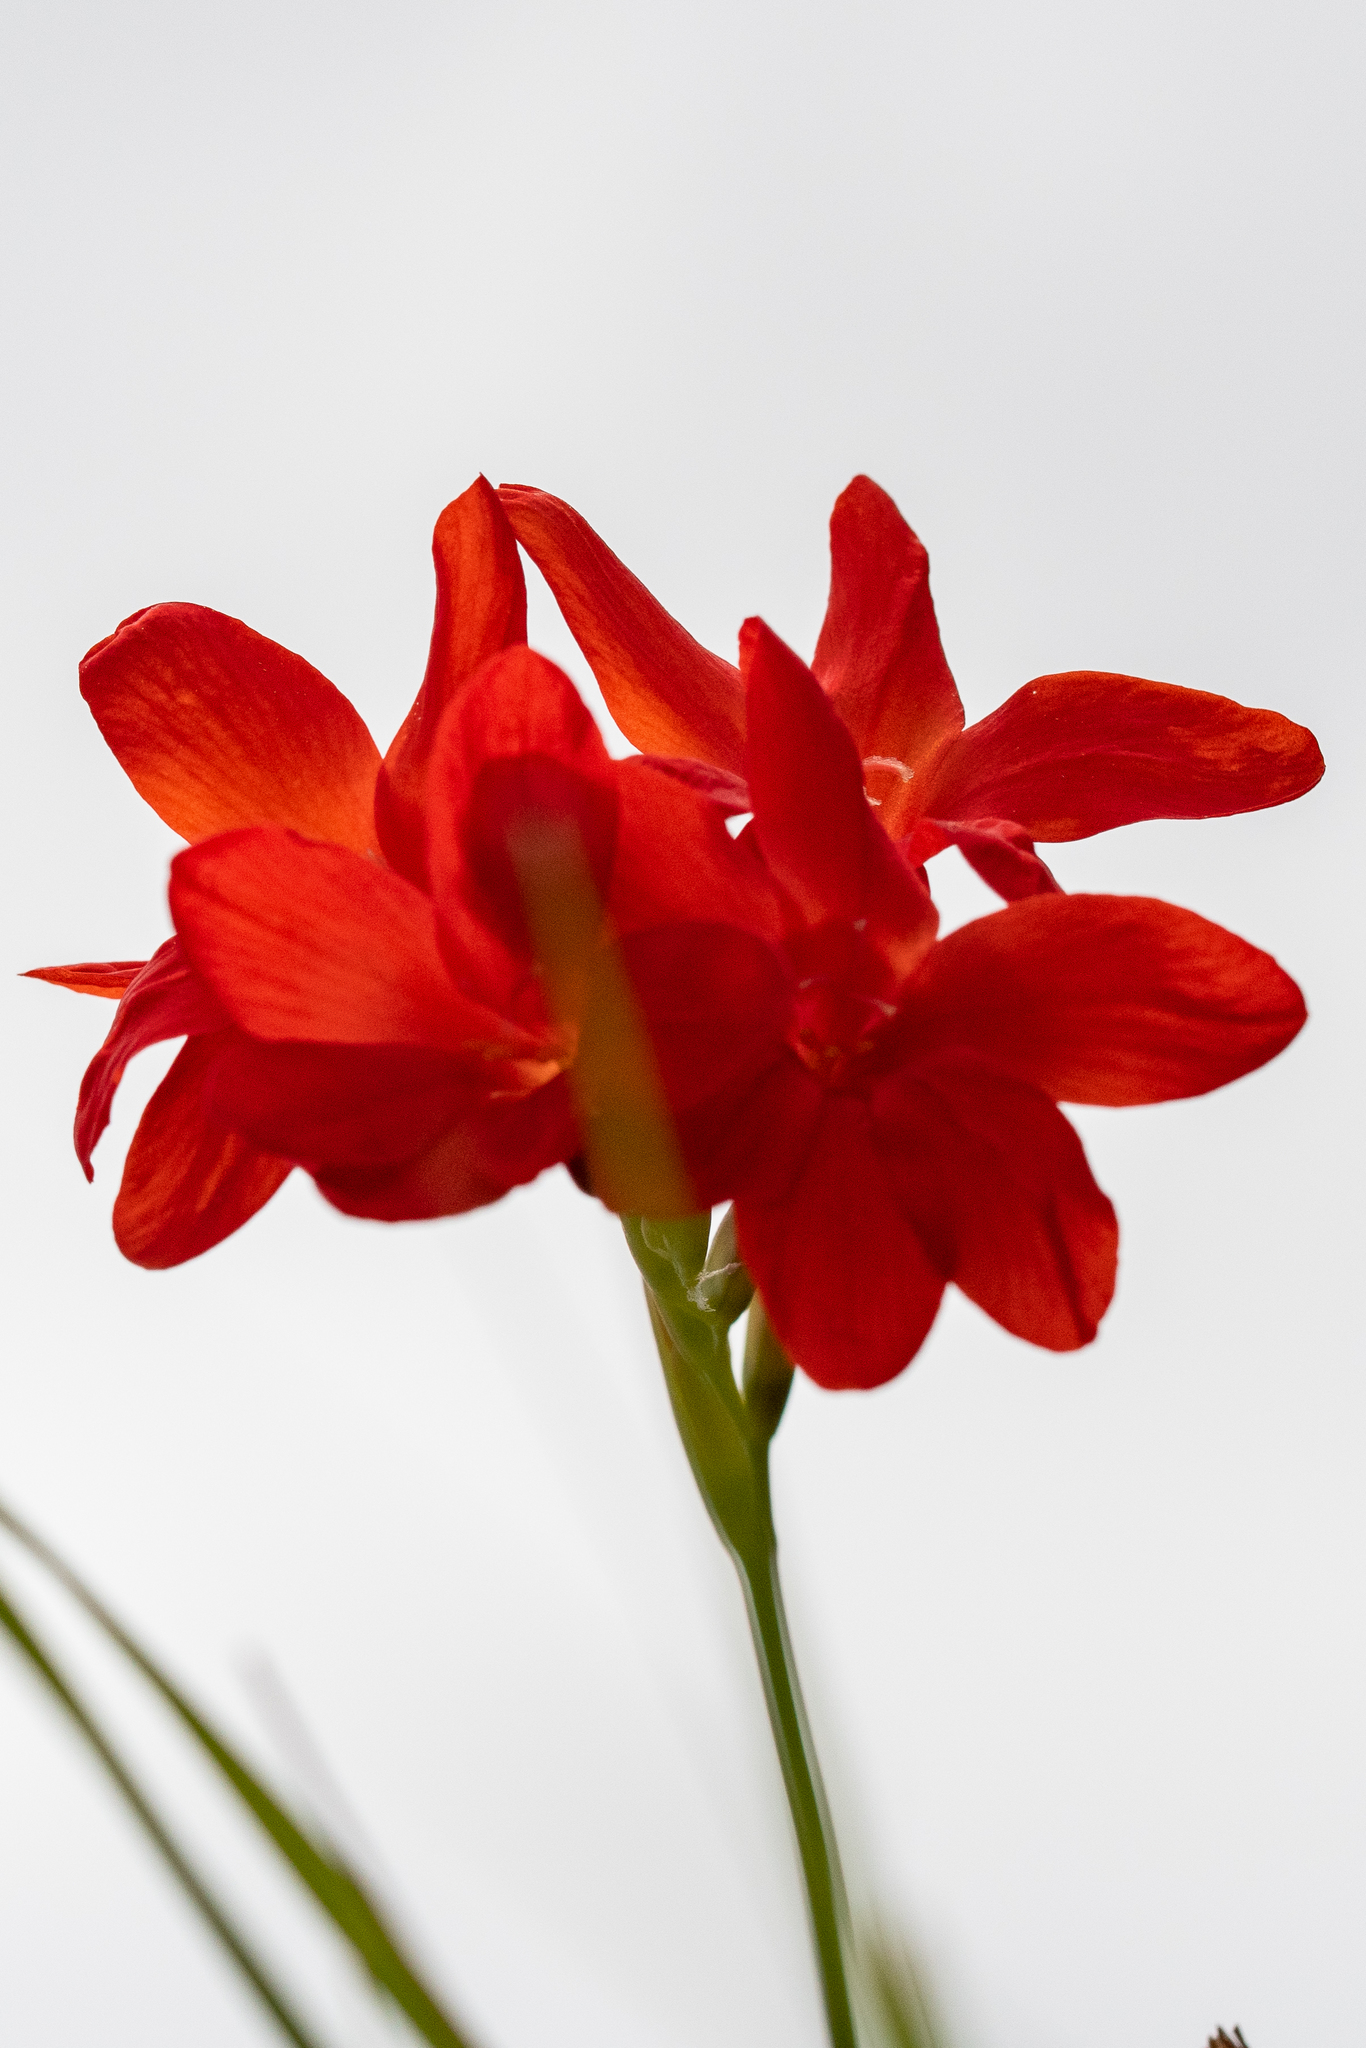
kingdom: Plantae
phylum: Tracheophyta
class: Liliopsida
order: Asparagales
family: Iridaceae
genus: Gladiolus
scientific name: Gladiolus nerineoides
